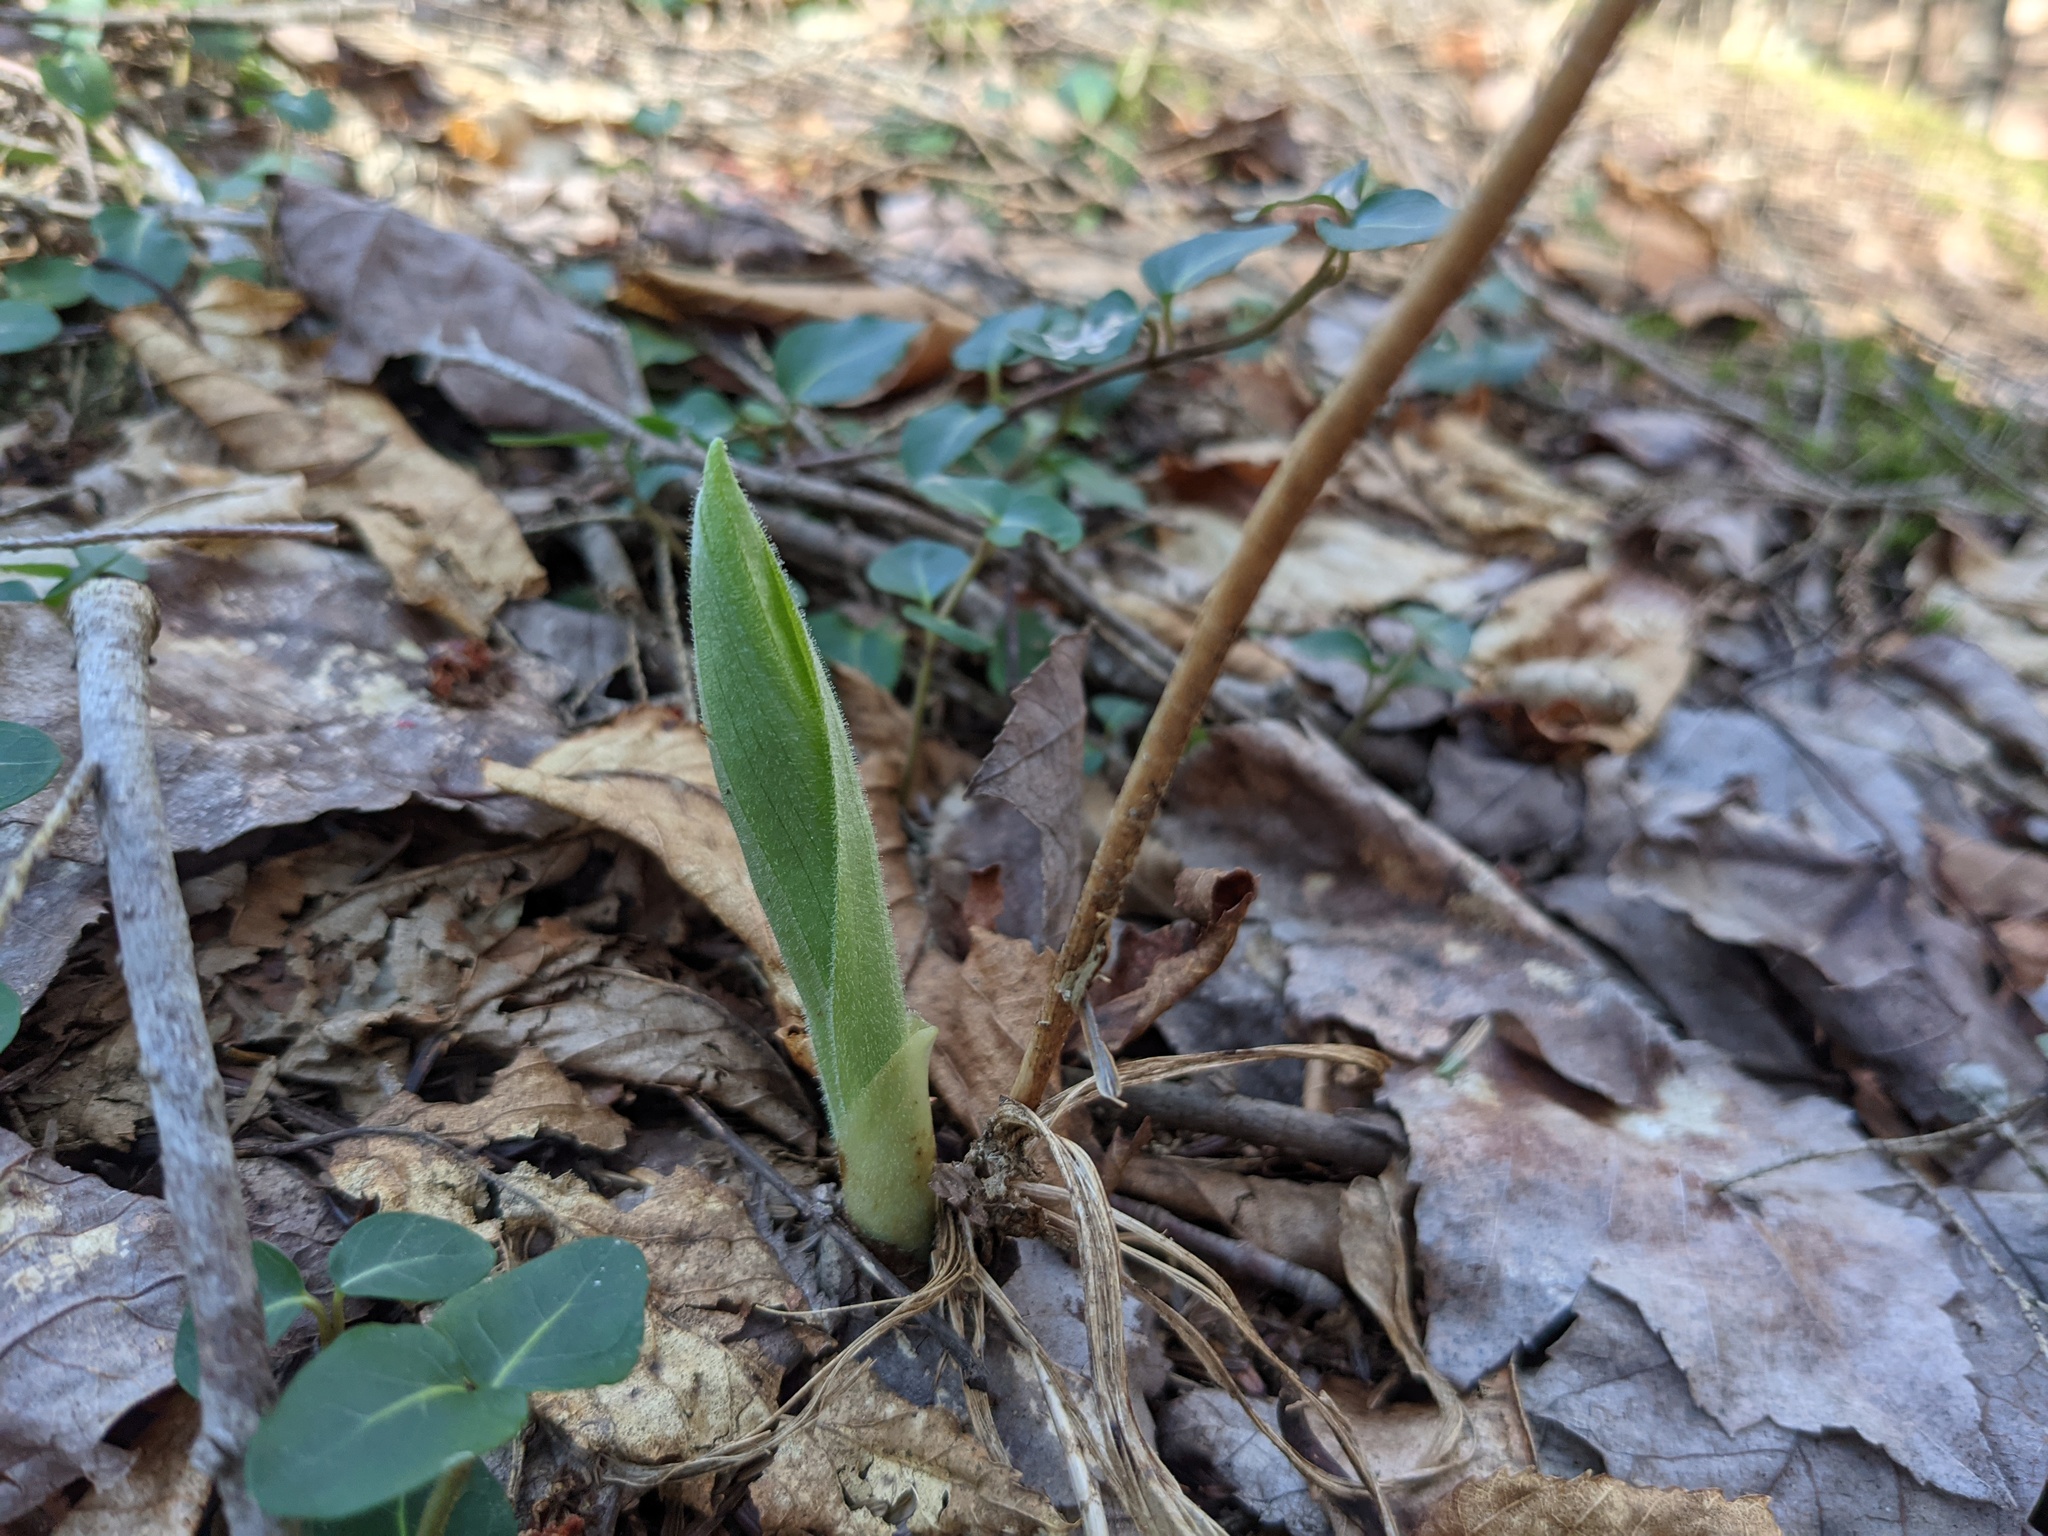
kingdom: Plantae
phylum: Tracheophyta
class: Liliopsida
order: Asparagales
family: Orchidaceae
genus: Cypripedium
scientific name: Cypripedium acaule
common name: Pink lady's-slipper
